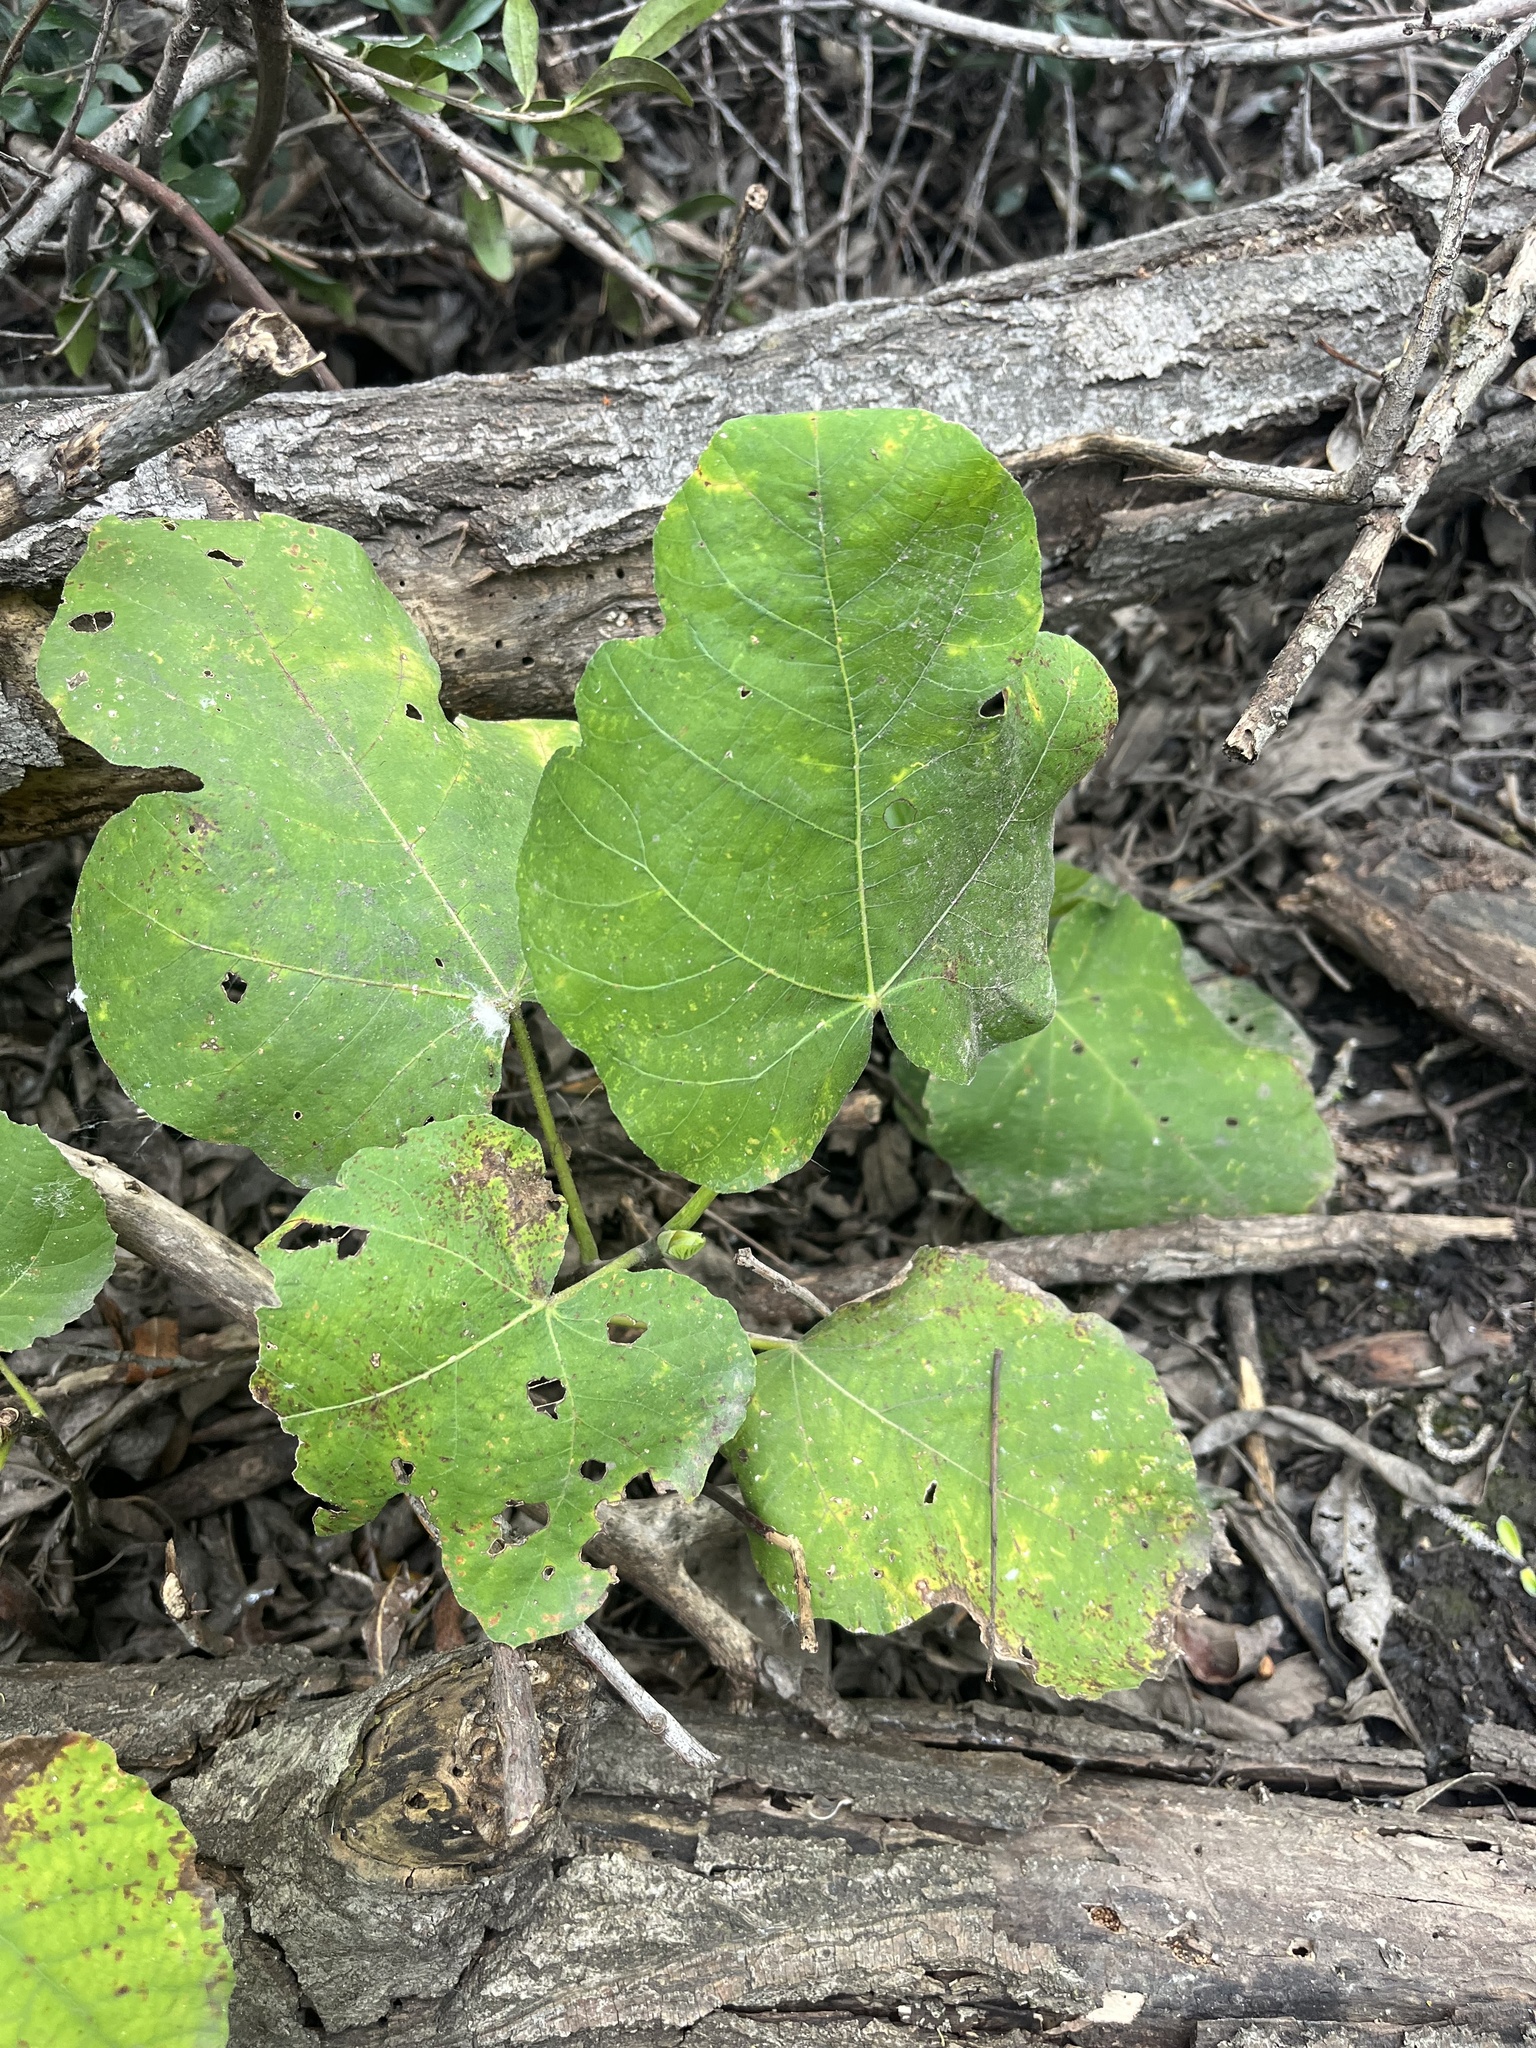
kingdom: Plantae
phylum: Tracheophyta
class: Magnoliopsida
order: Rosales
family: Moraceae
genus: Ficus
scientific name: Ficus carica
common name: Fig
